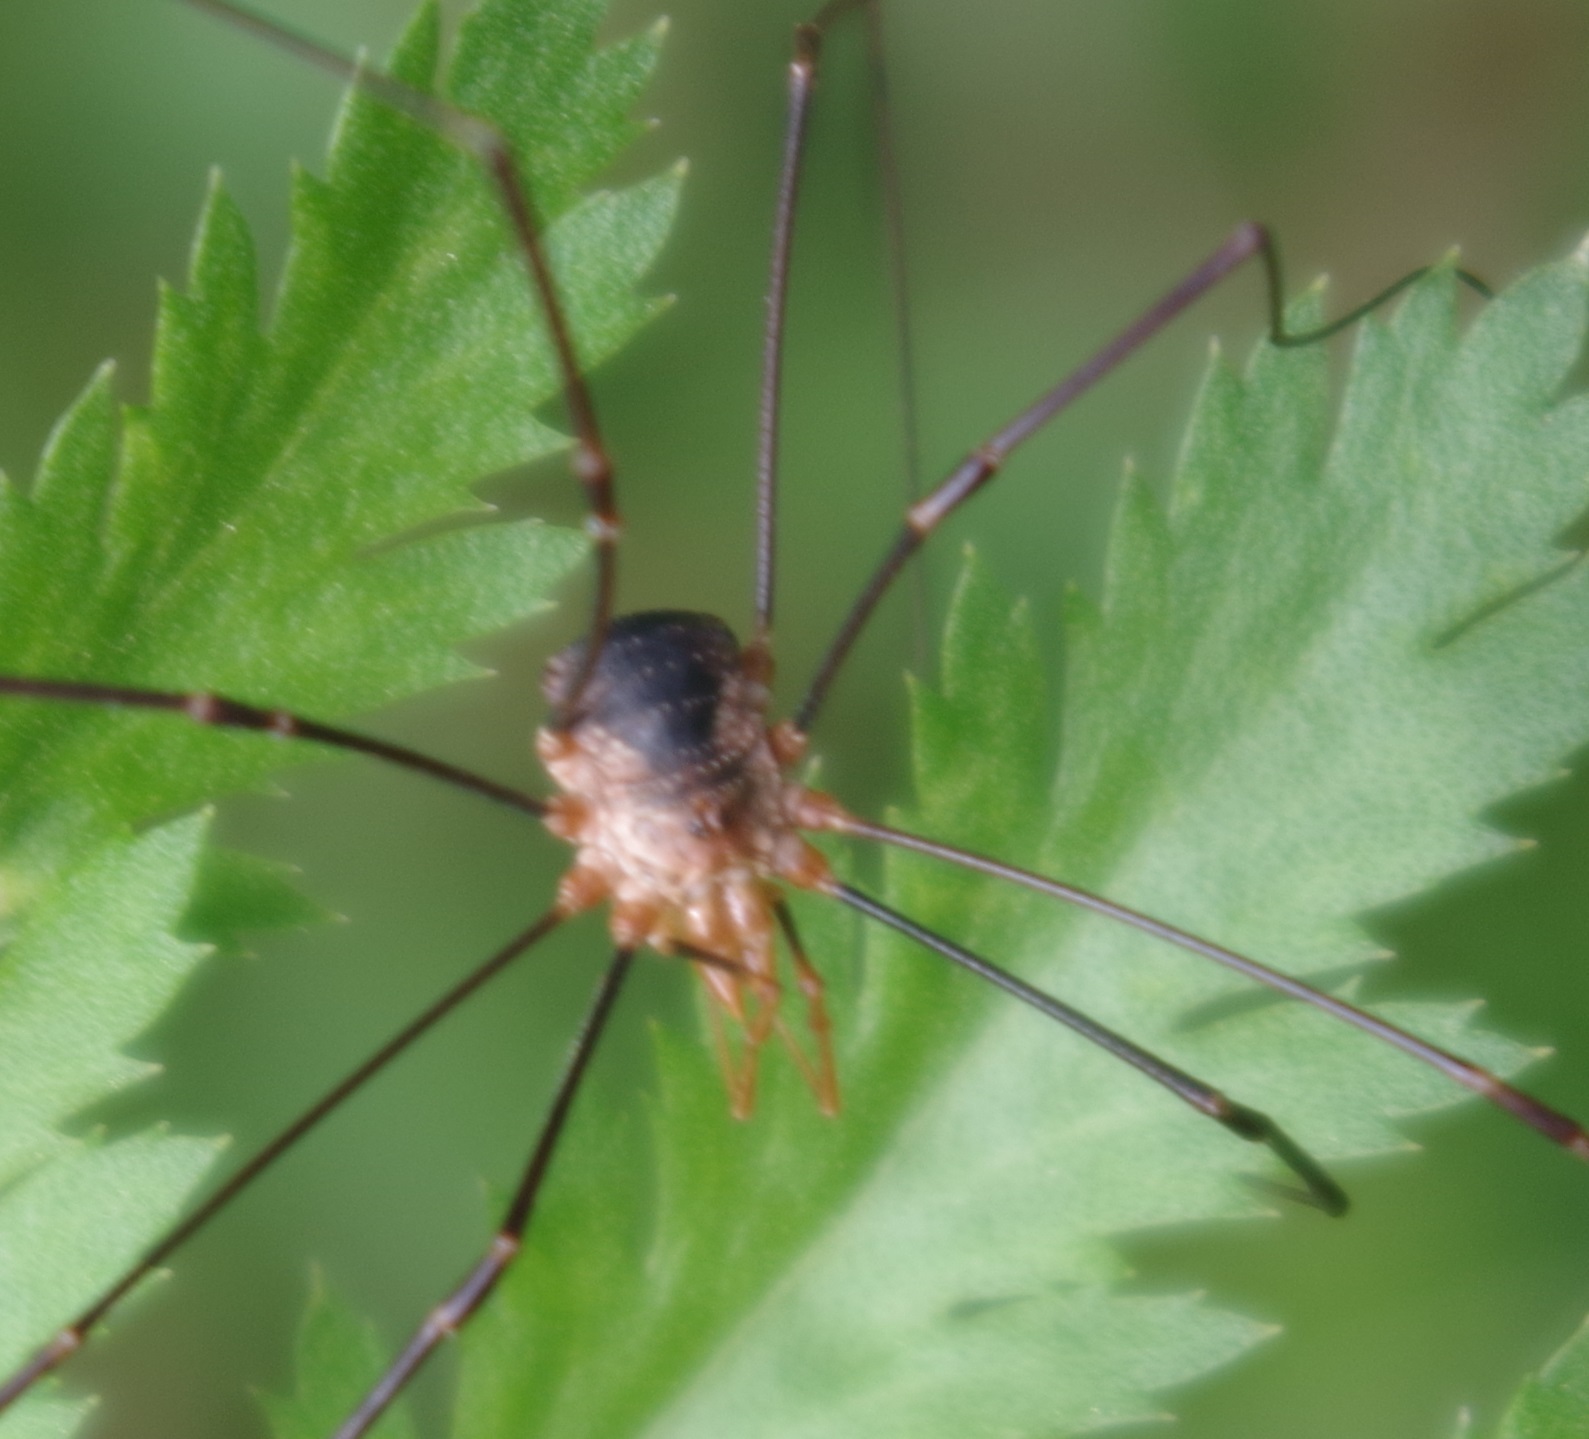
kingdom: Animalia
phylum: Arthropoda
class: Arachnida
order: Opiliones
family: Phalangiidae
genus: Phalangium
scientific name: Phalangium opilio
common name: Daddy longleg
